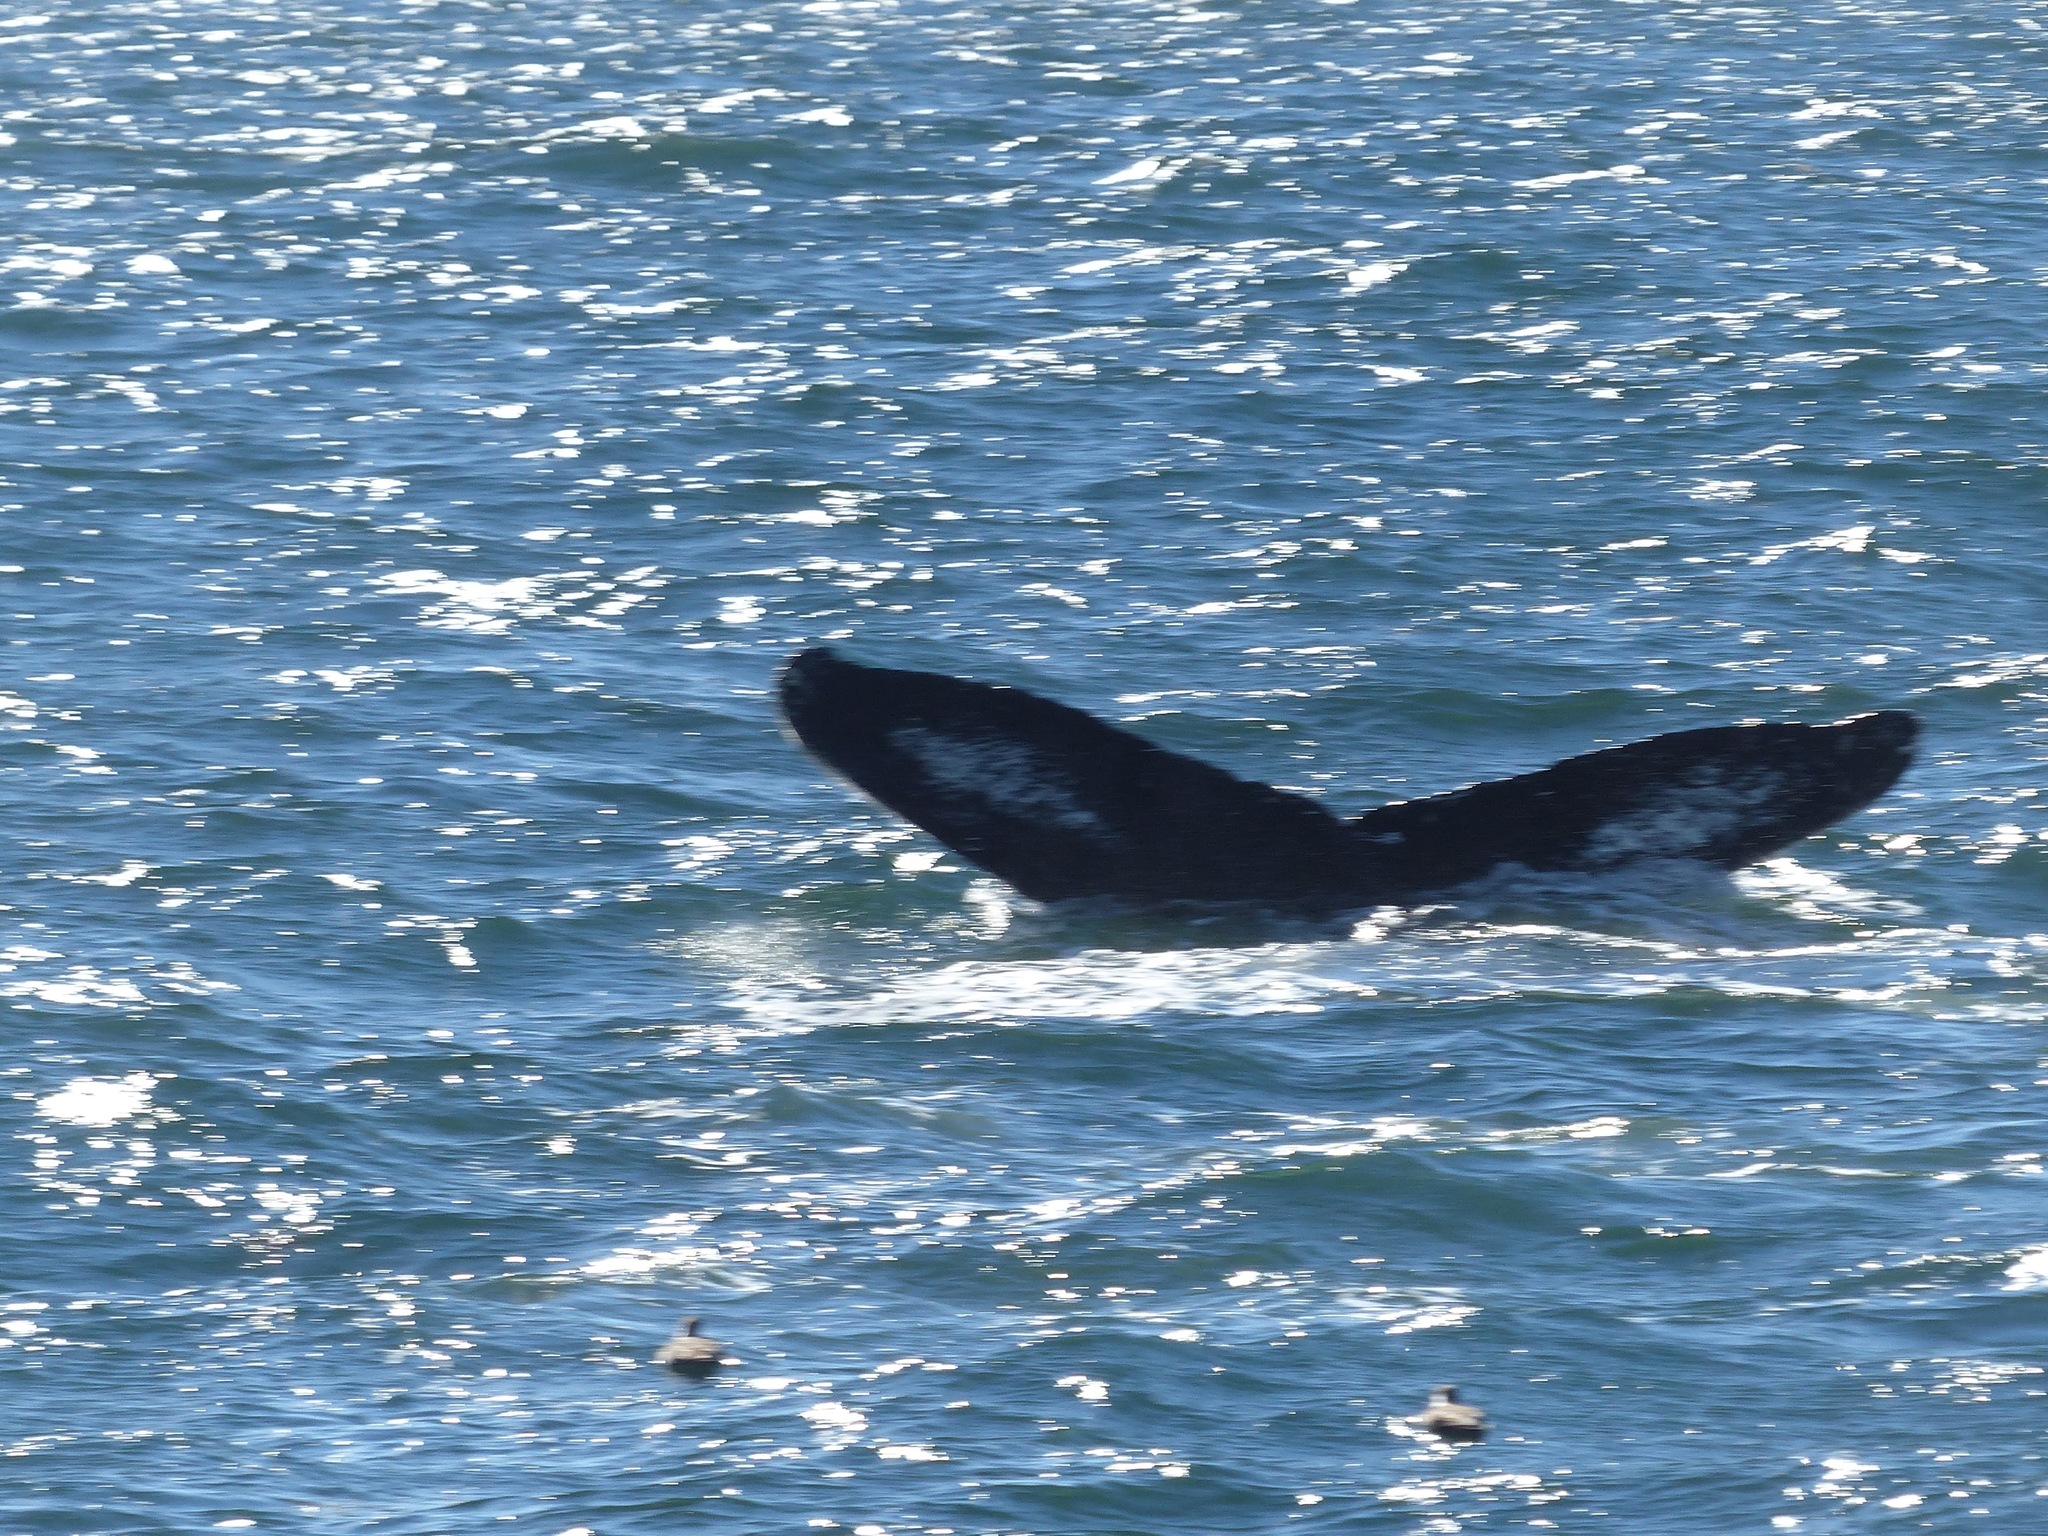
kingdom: Animalia
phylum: Chordata
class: Mammalia
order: Cetacea
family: Balaenopteridae
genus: Megaptera
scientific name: Megaptera novaeangliae
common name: Humpback whale
